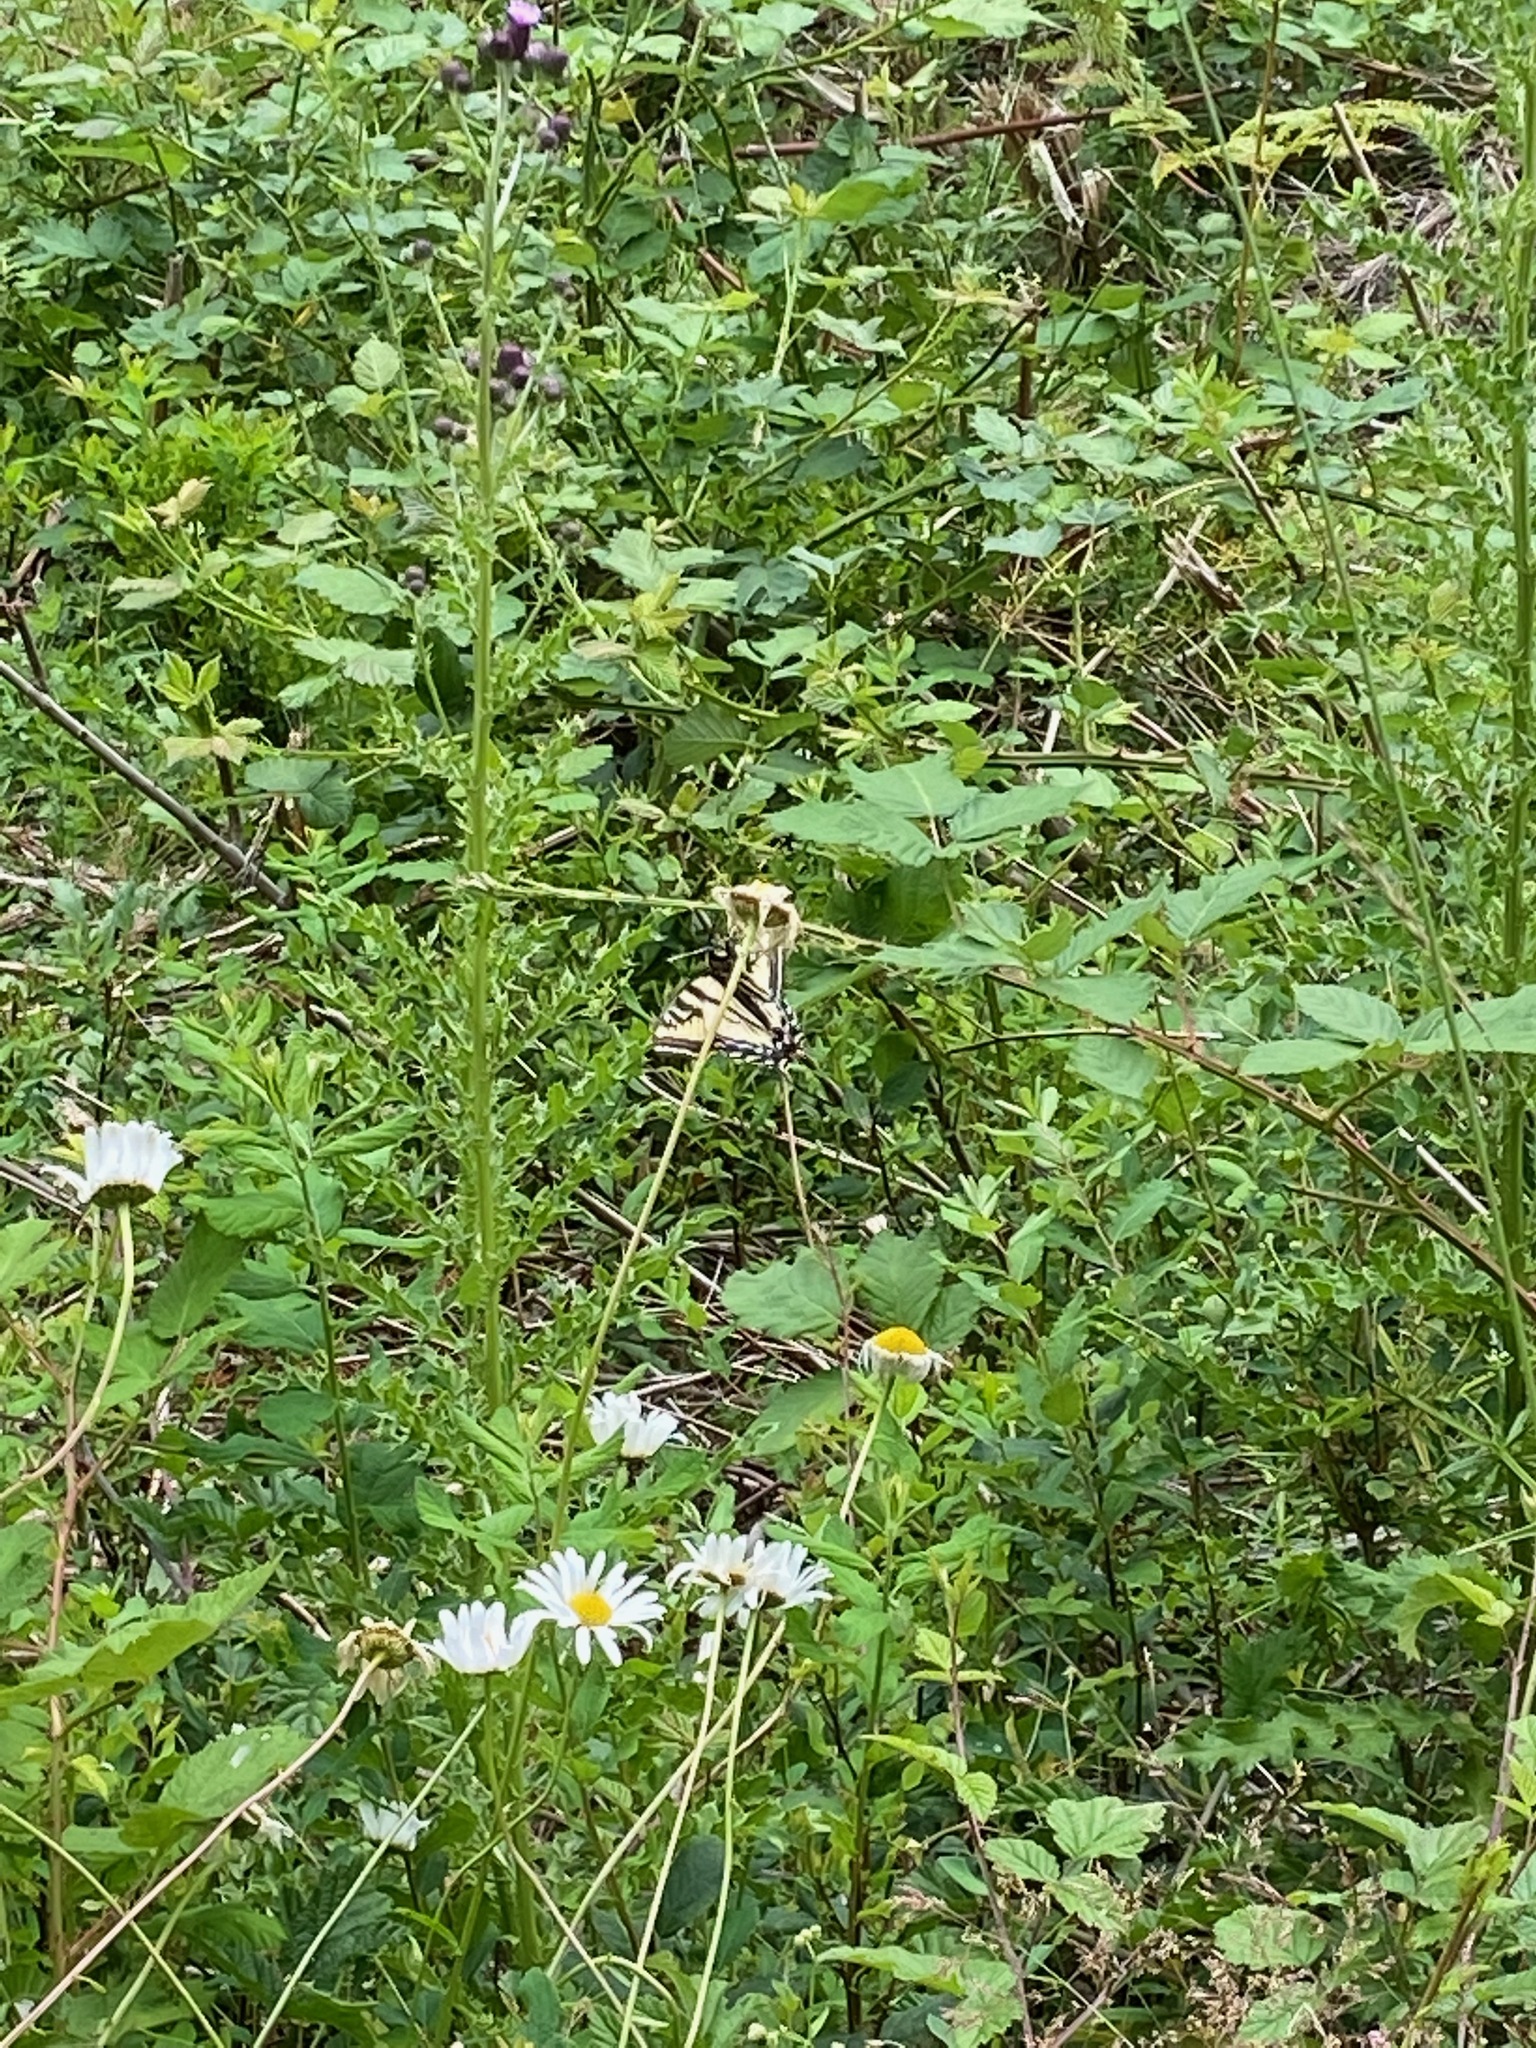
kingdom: Animalia
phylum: Arthropoda
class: Insecta
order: Lepidoptera
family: Papilionidae
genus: Papilio
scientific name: Papilio rutulus
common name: Western tiger swallowtail
